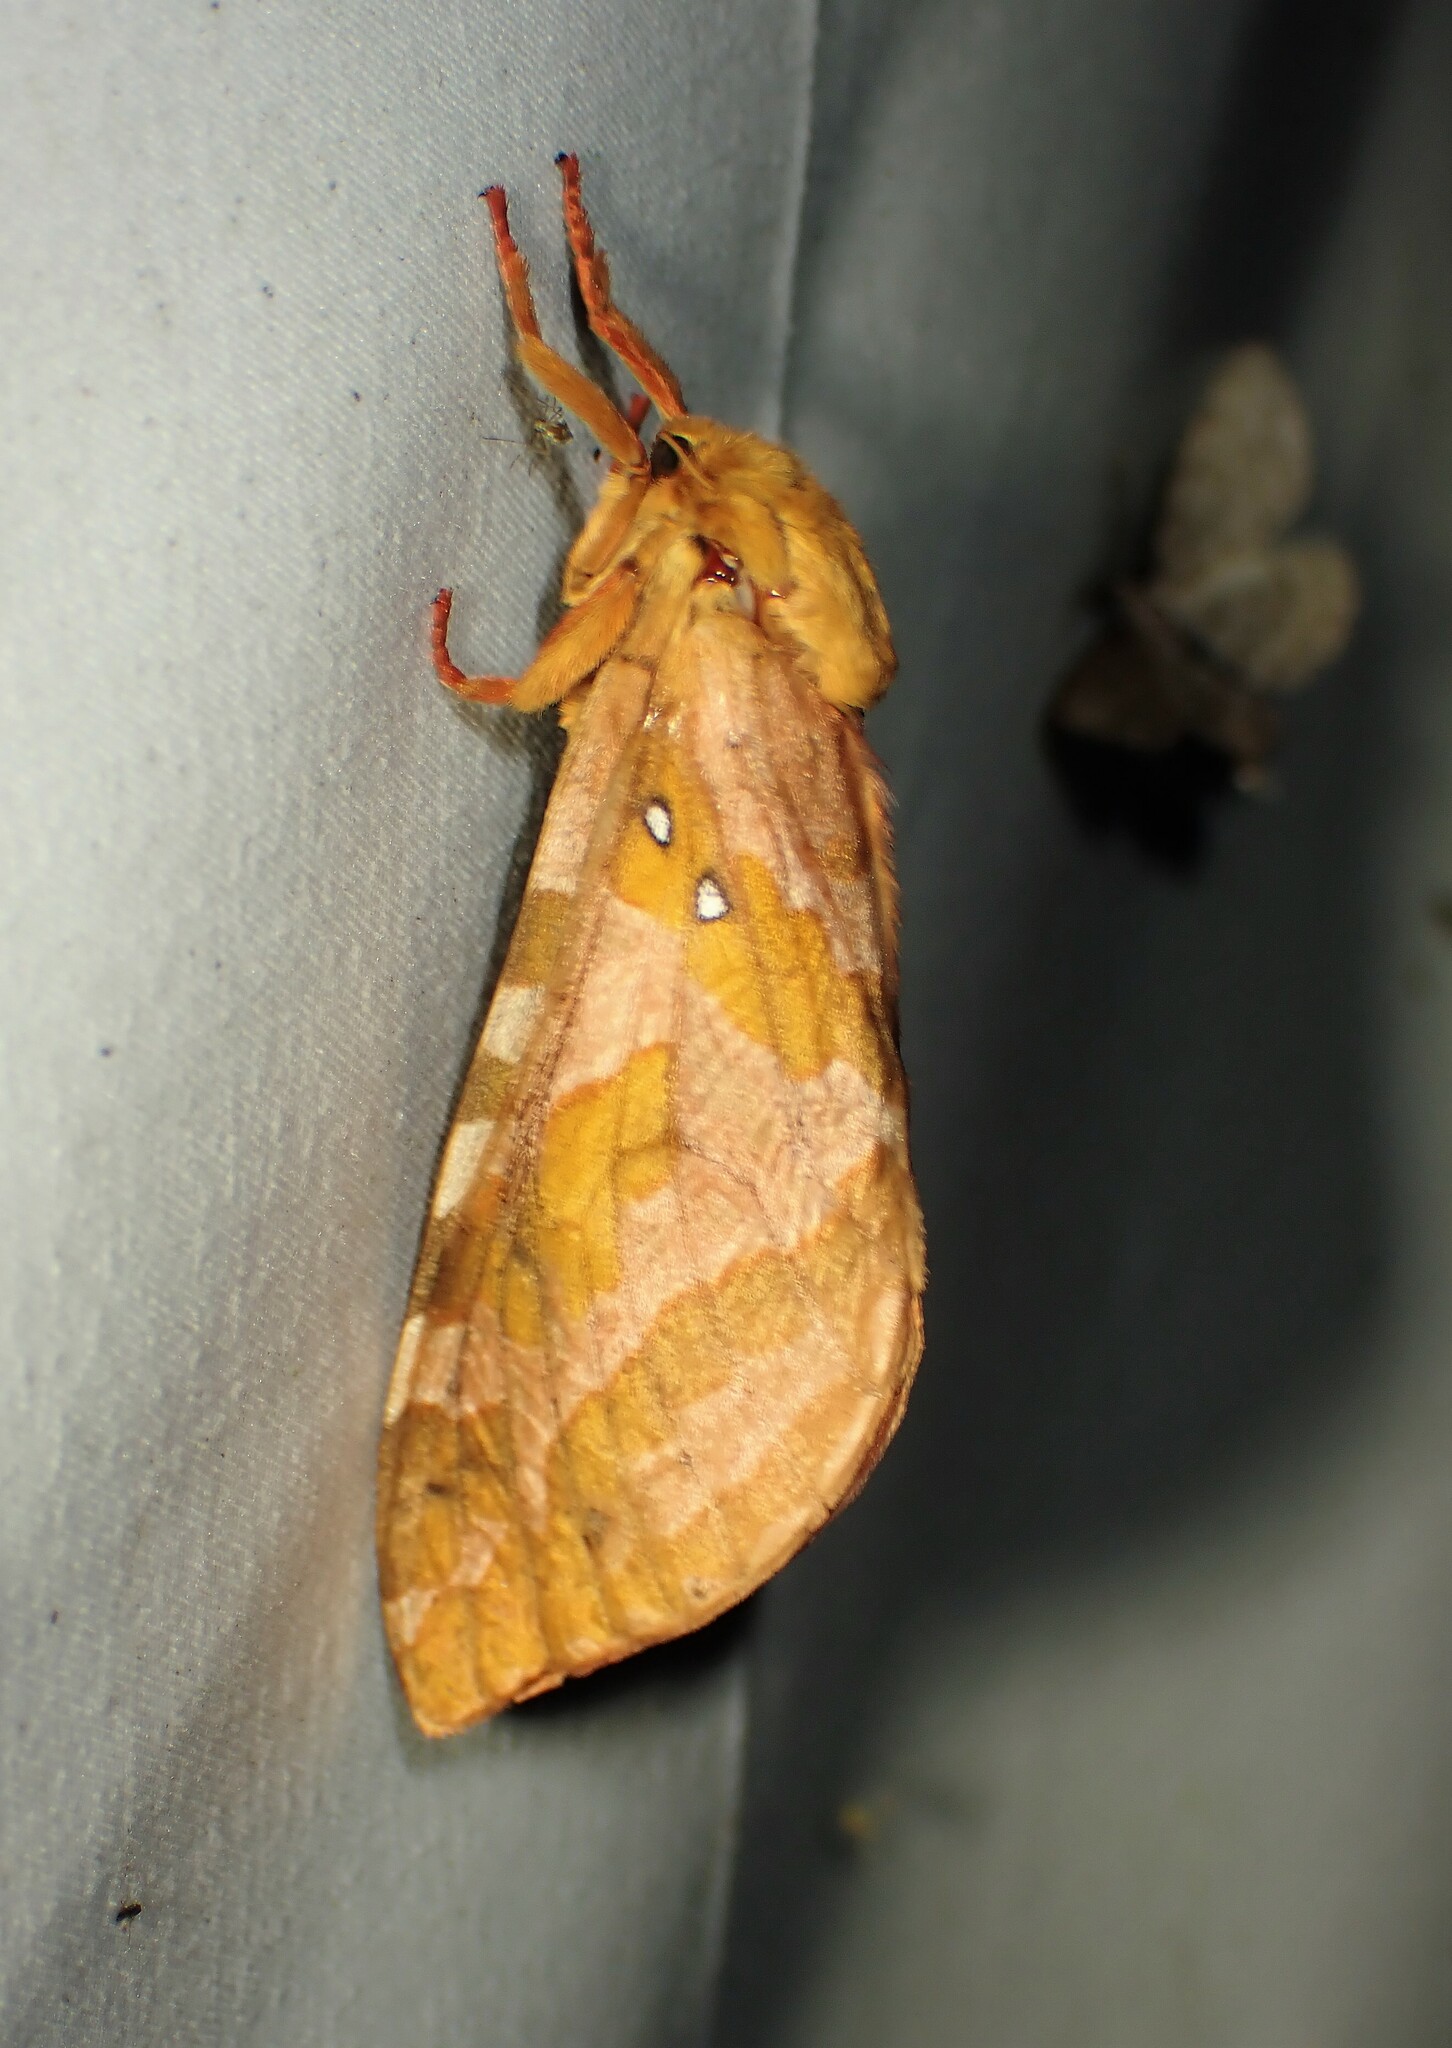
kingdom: Animalia
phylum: Arthropoda
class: Insecta
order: Lepidoptera
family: Hepialidae
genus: Sthenopis
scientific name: Sthenopis purpurascens
